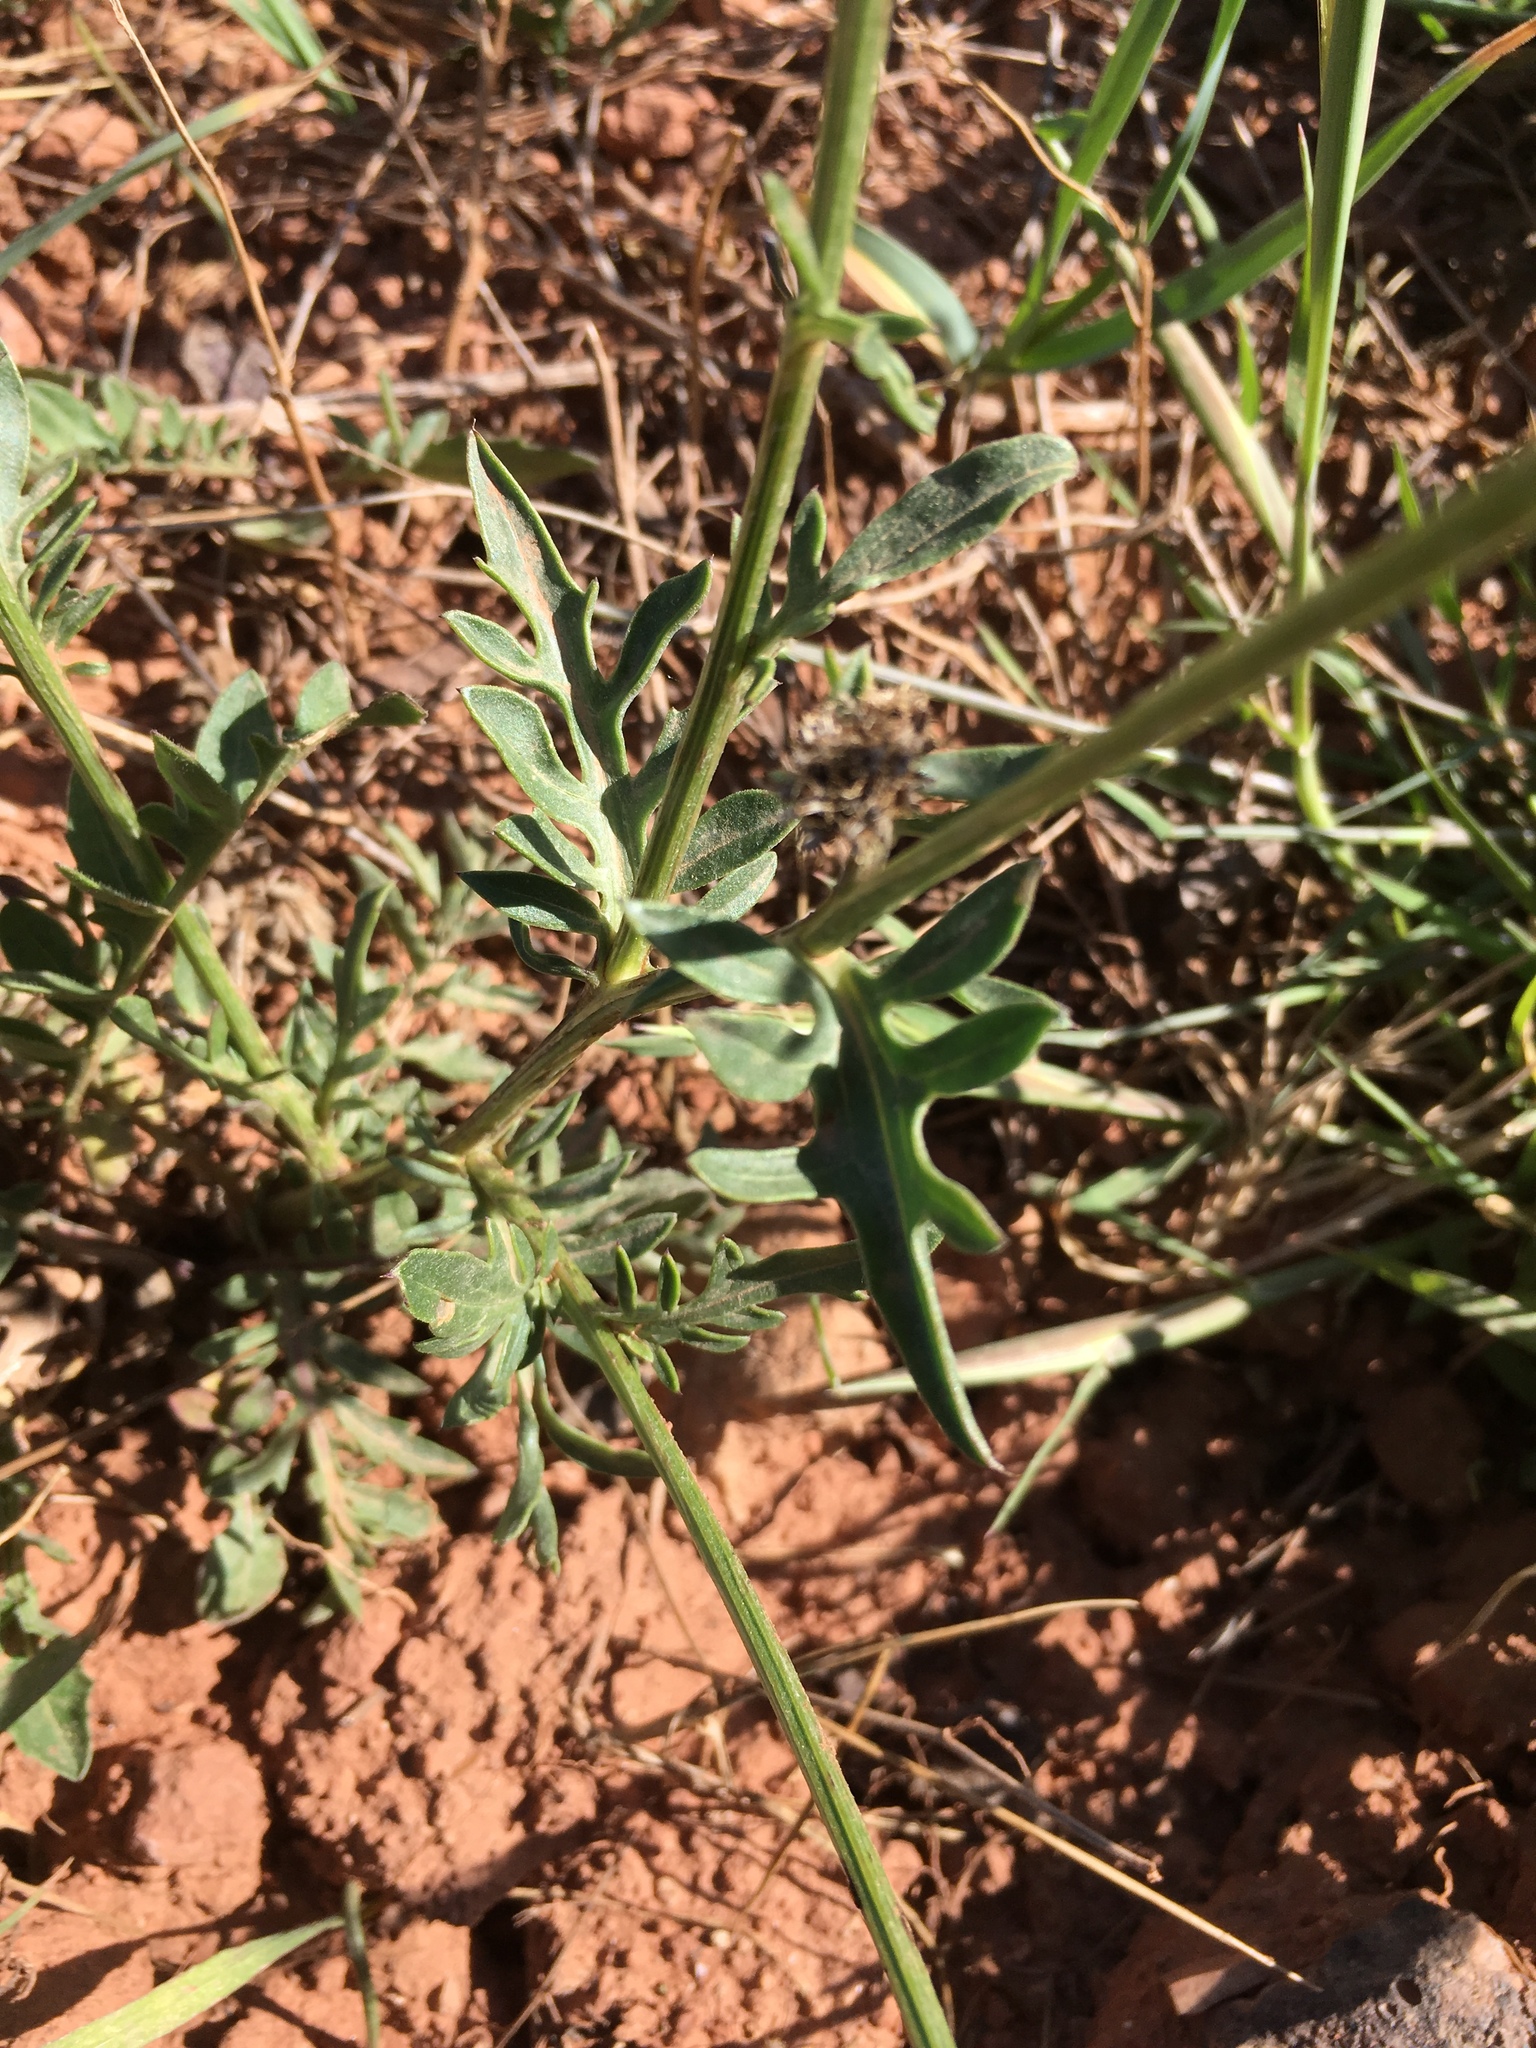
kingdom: Plantae
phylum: Tracheophyta
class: Magnoliopsida
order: Asterales
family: Asteraceae
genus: Centaurea
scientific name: Centaurea scabiosa
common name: Greater knapweed
